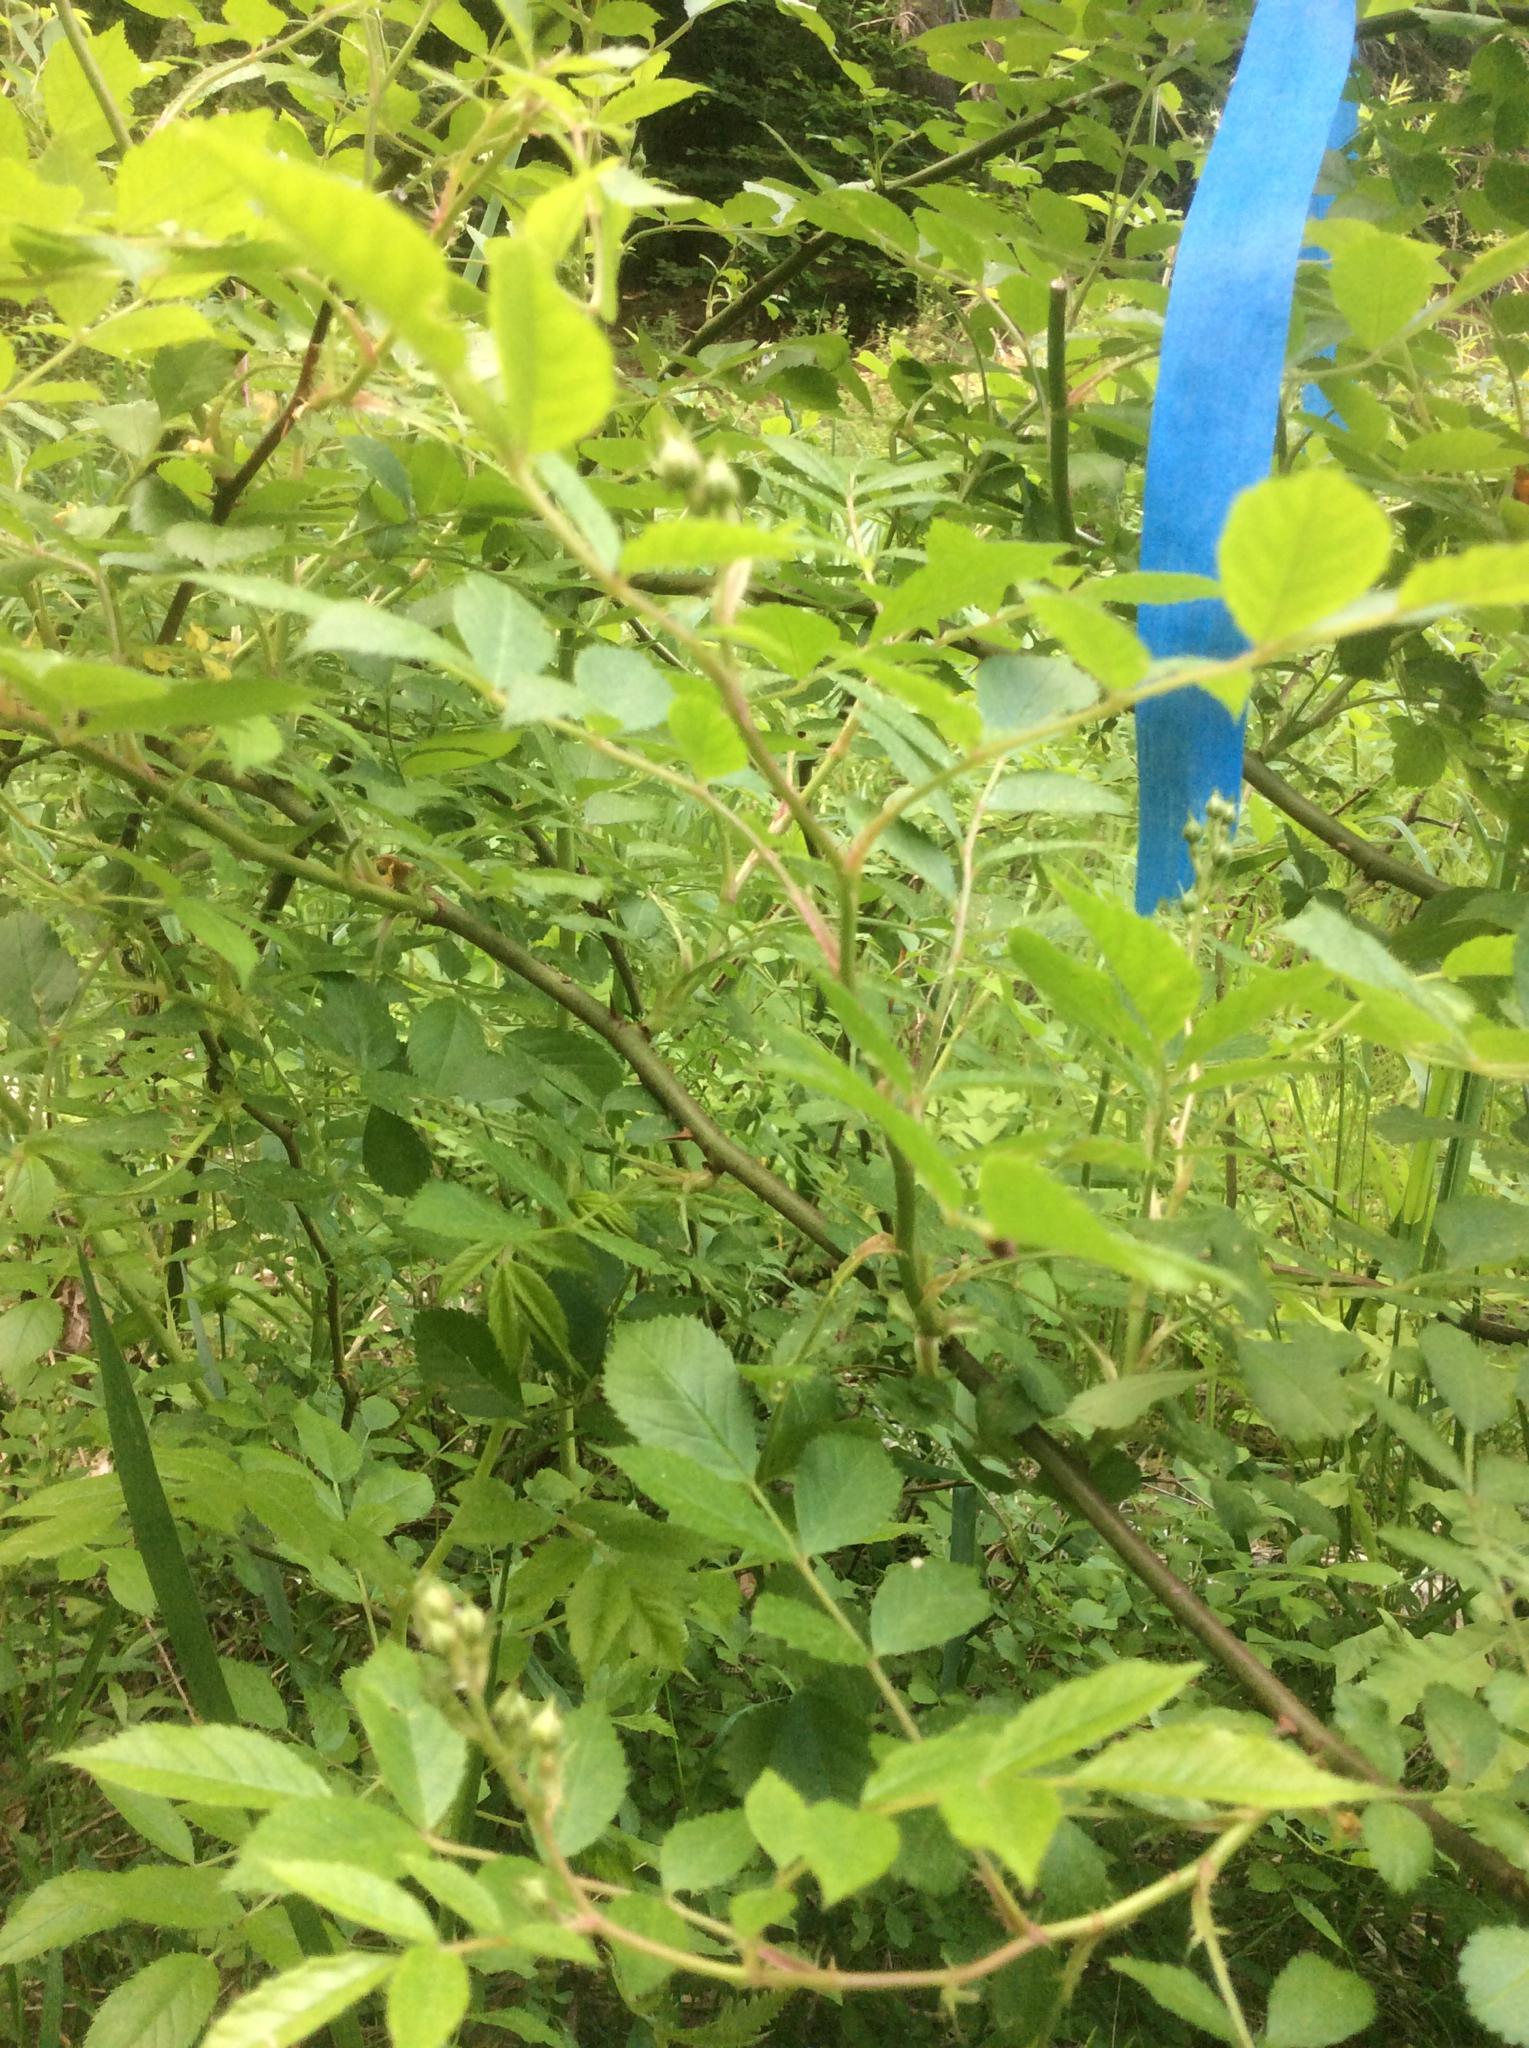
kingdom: Plantae
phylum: Tracheophyta
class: Magnoliopsida
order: Rosales
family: Rosaceae
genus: Rosa
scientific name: Rosa multiflora
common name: Multiflora rose
